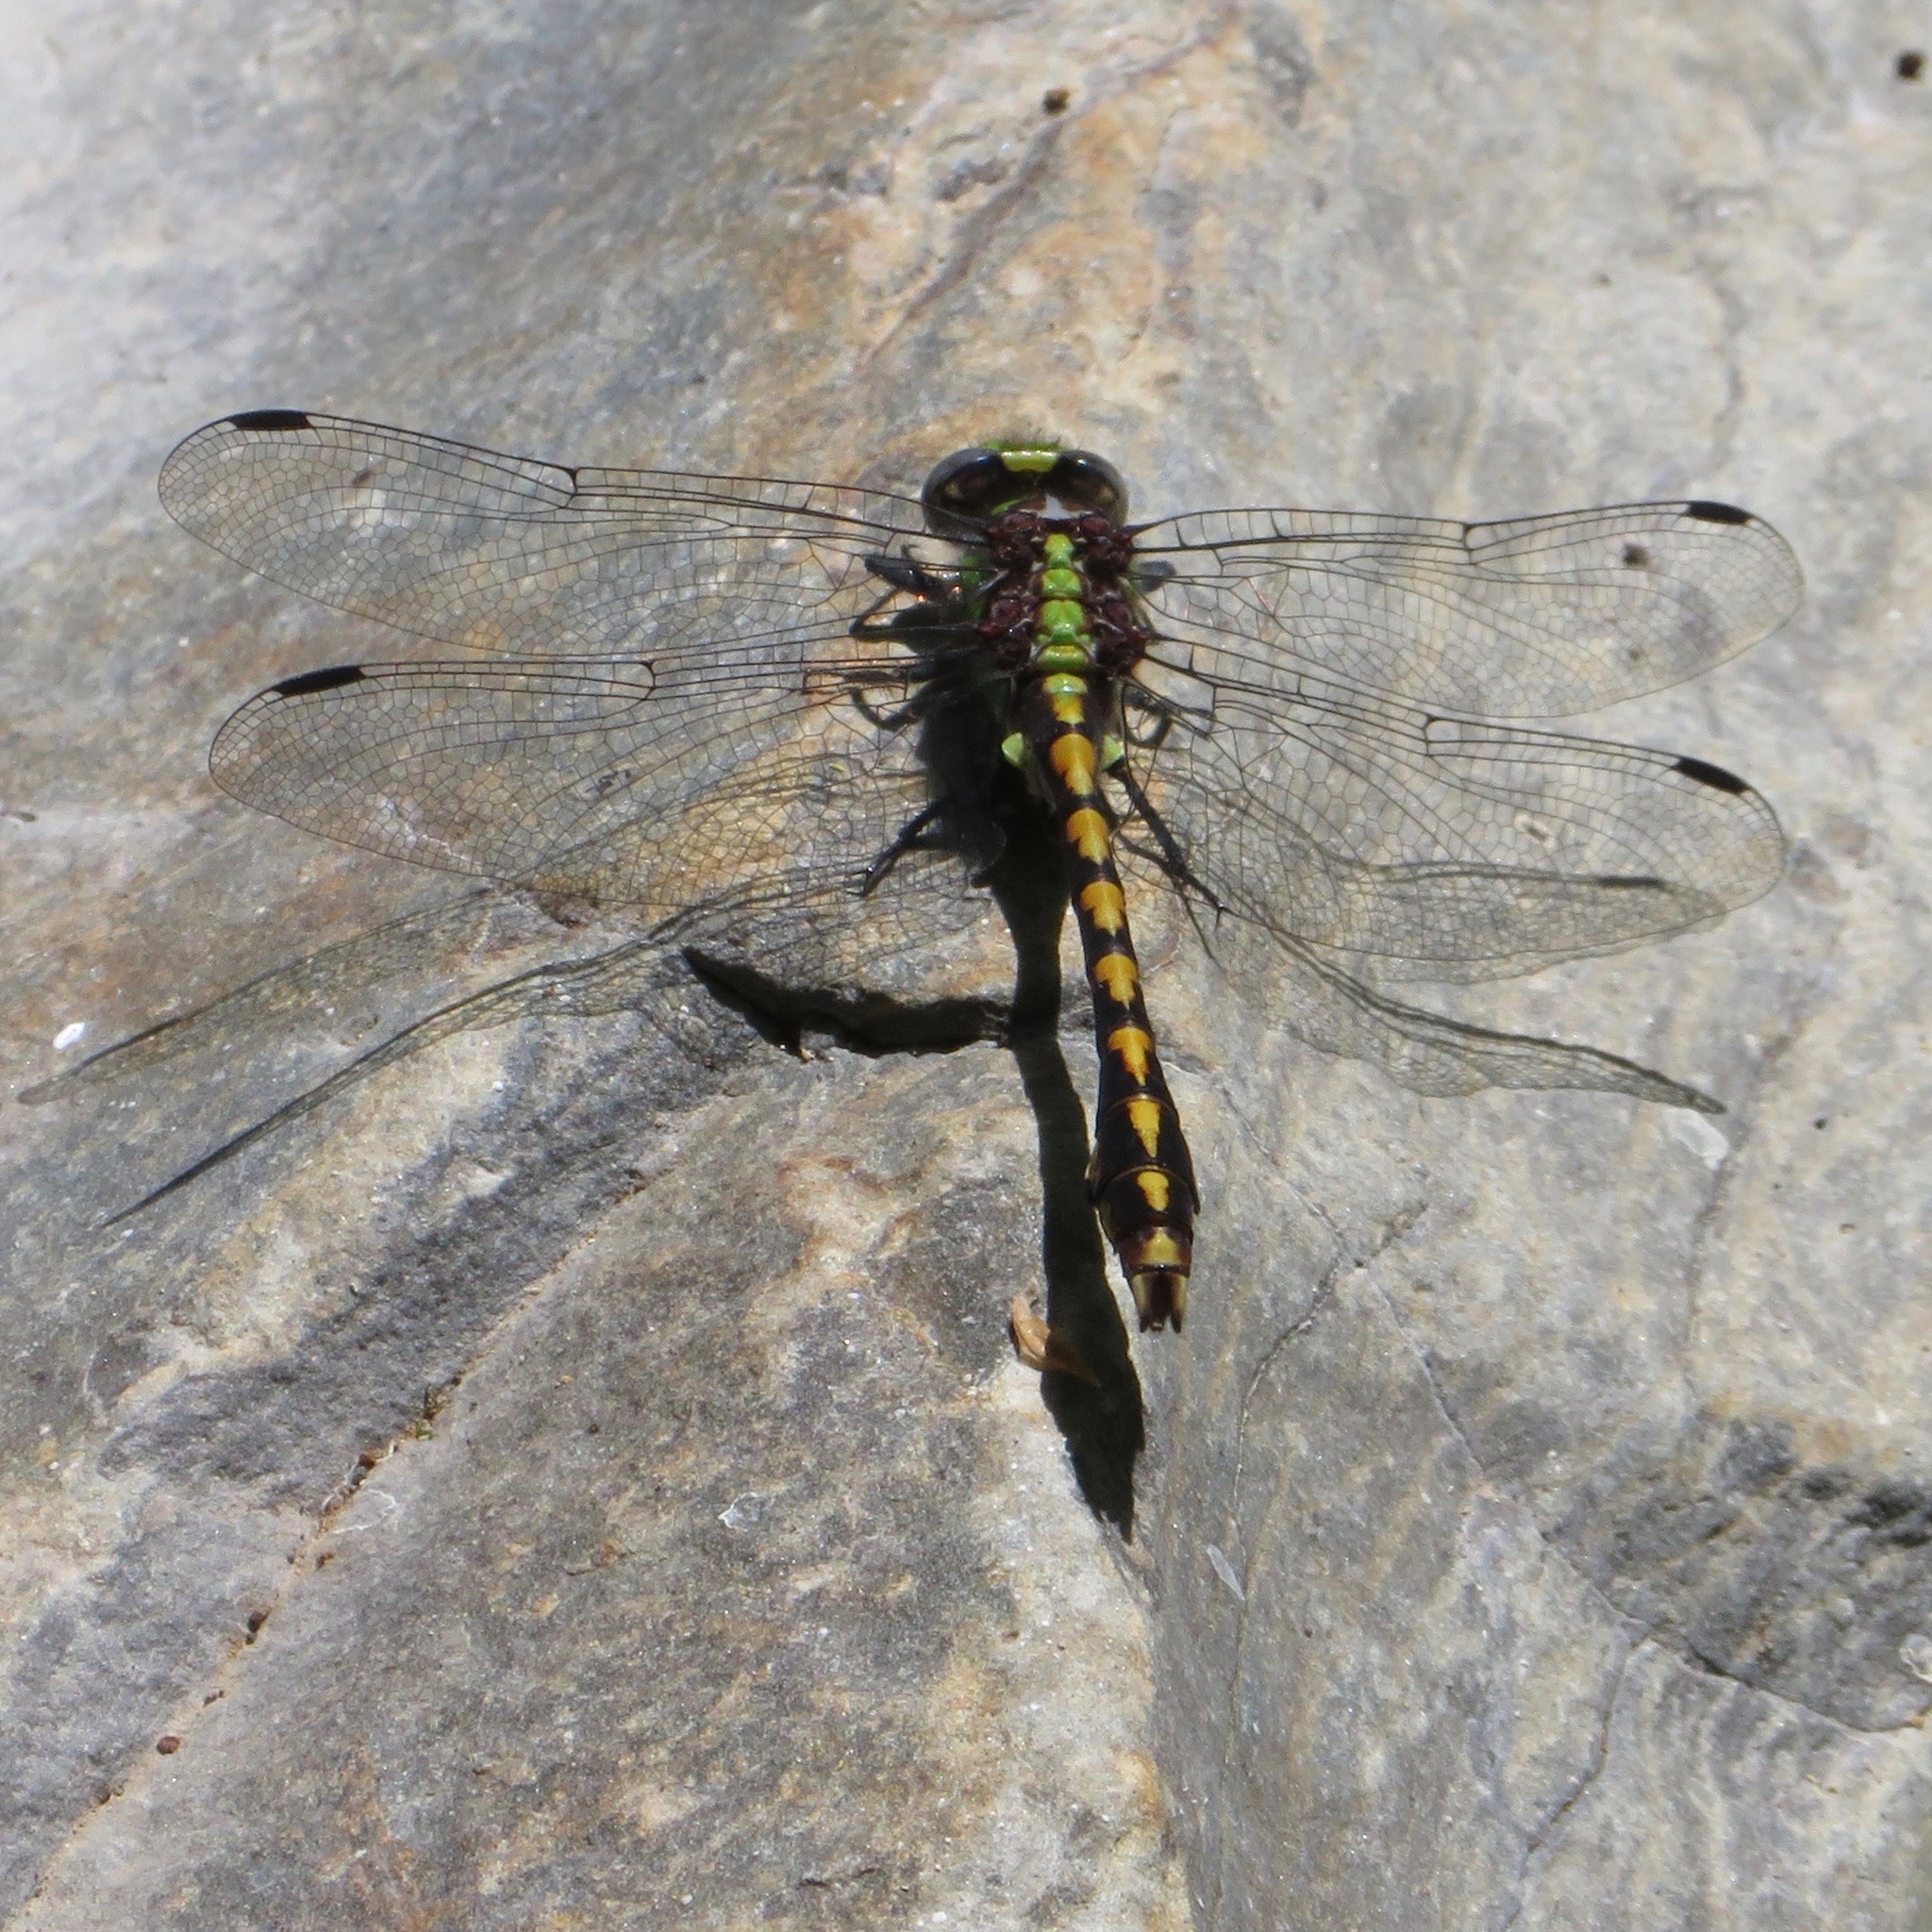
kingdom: Animalia
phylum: Arthropoda
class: Insecta
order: Odonata
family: Gomphidae
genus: Ophiogomphus
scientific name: Ophiogomphus bison
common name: Bison snaketail
